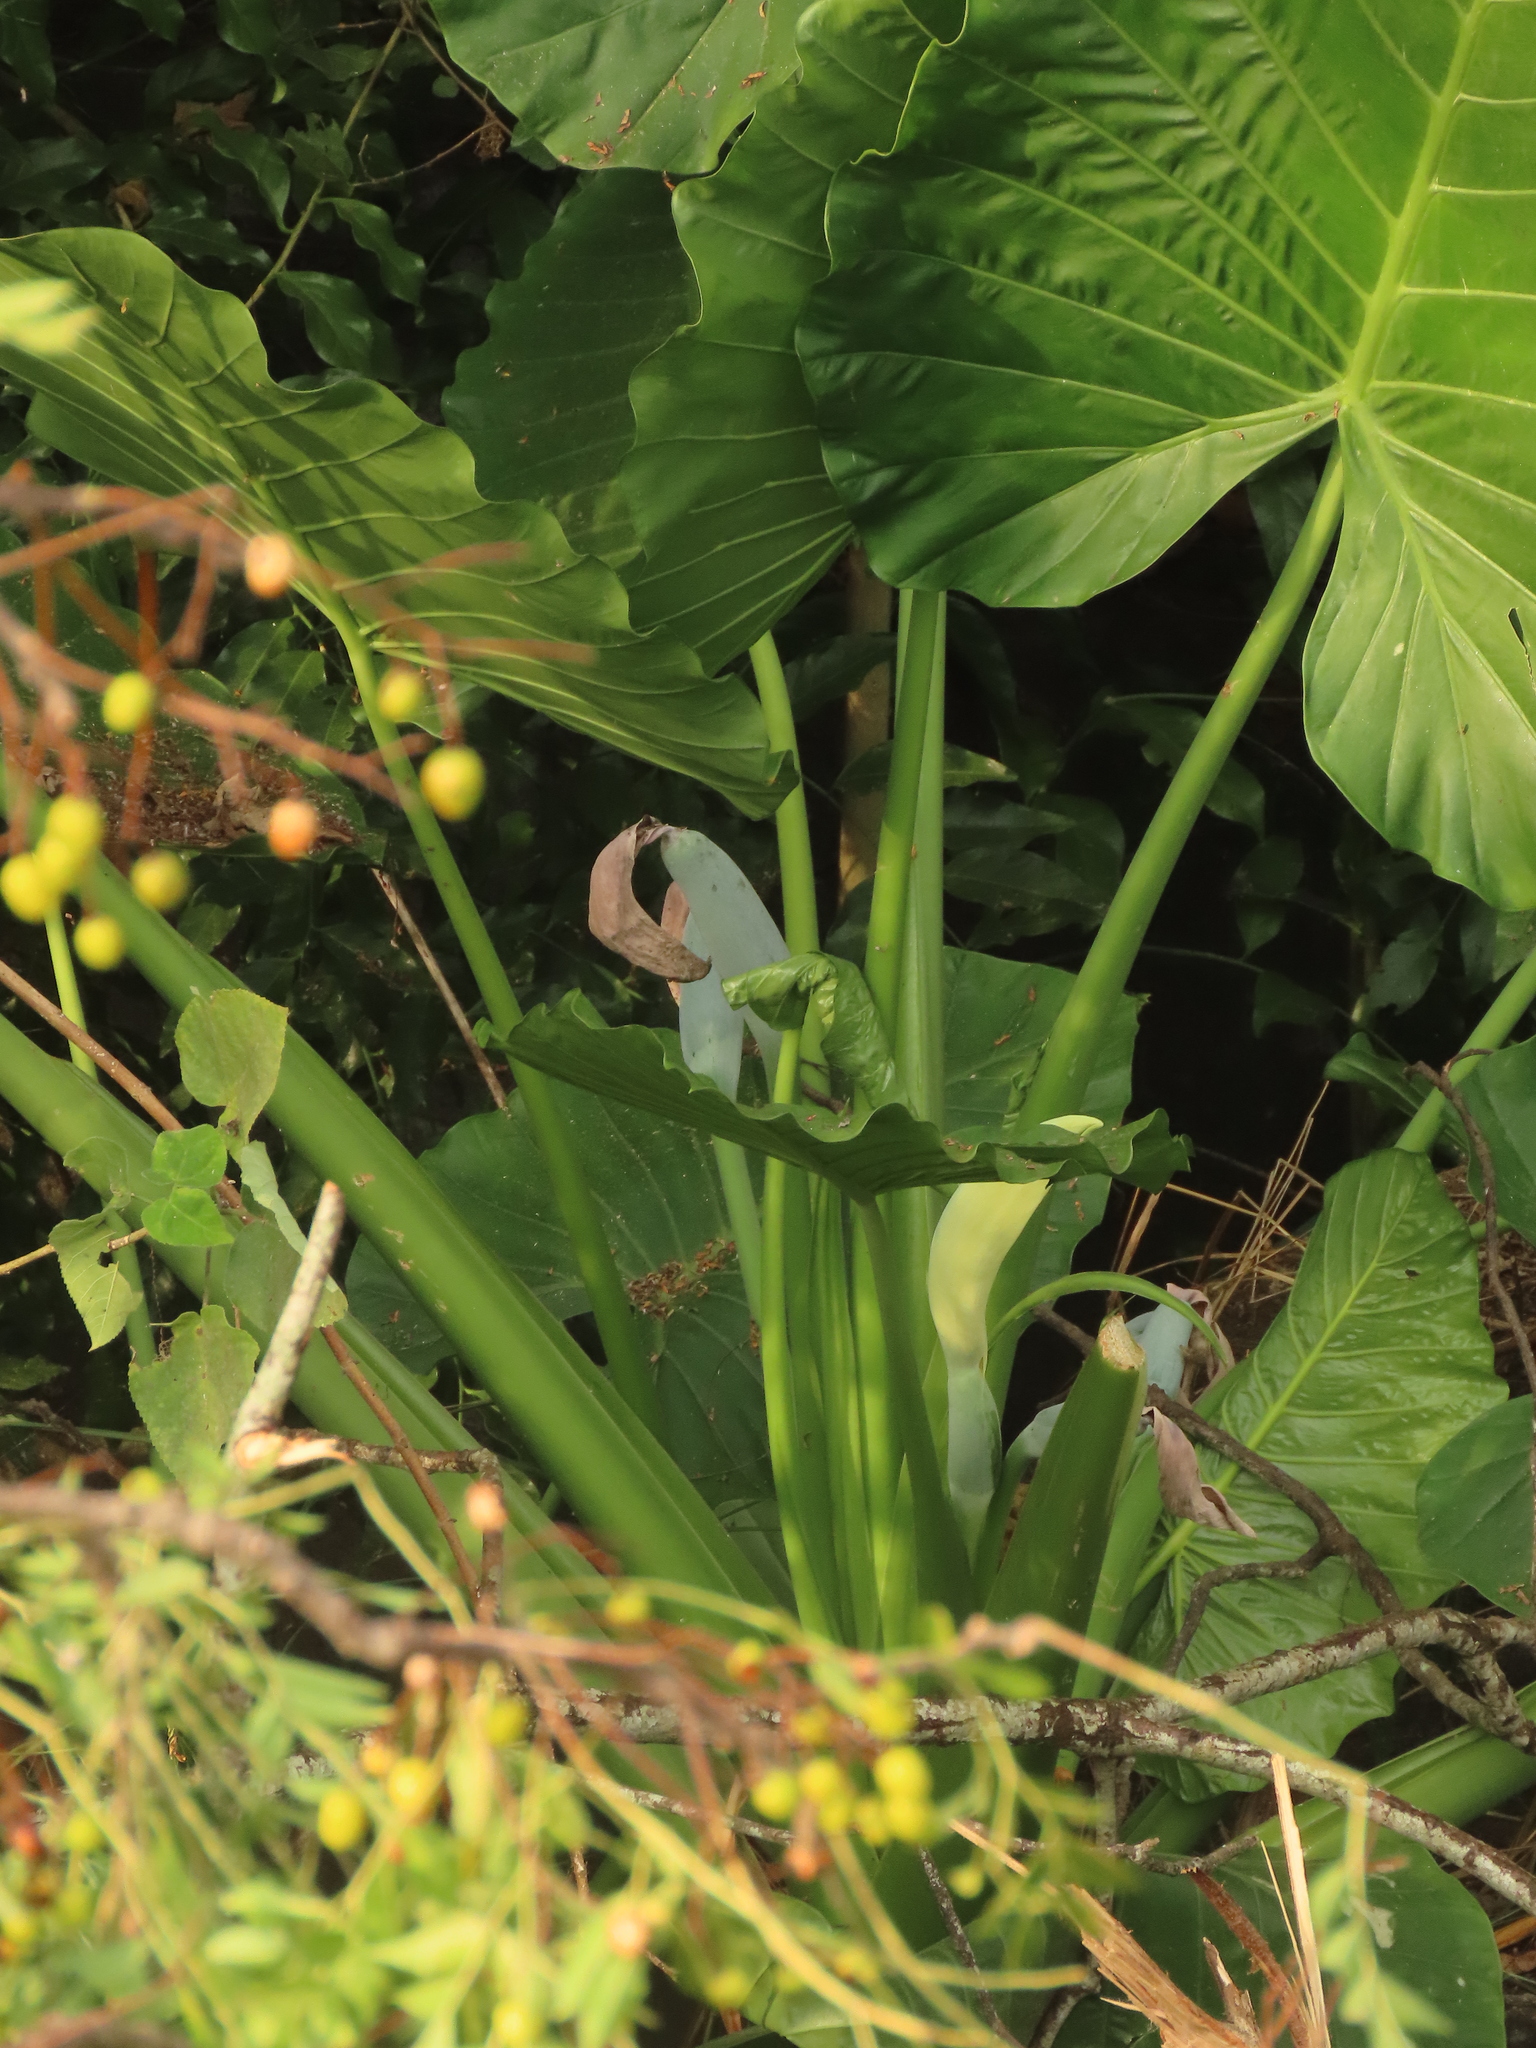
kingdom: Plantae
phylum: Tracheophyta
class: Liliopsida
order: Alismatales
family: Araceae
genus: Alocasia
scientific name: Alocasia odora
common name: Asian taro
